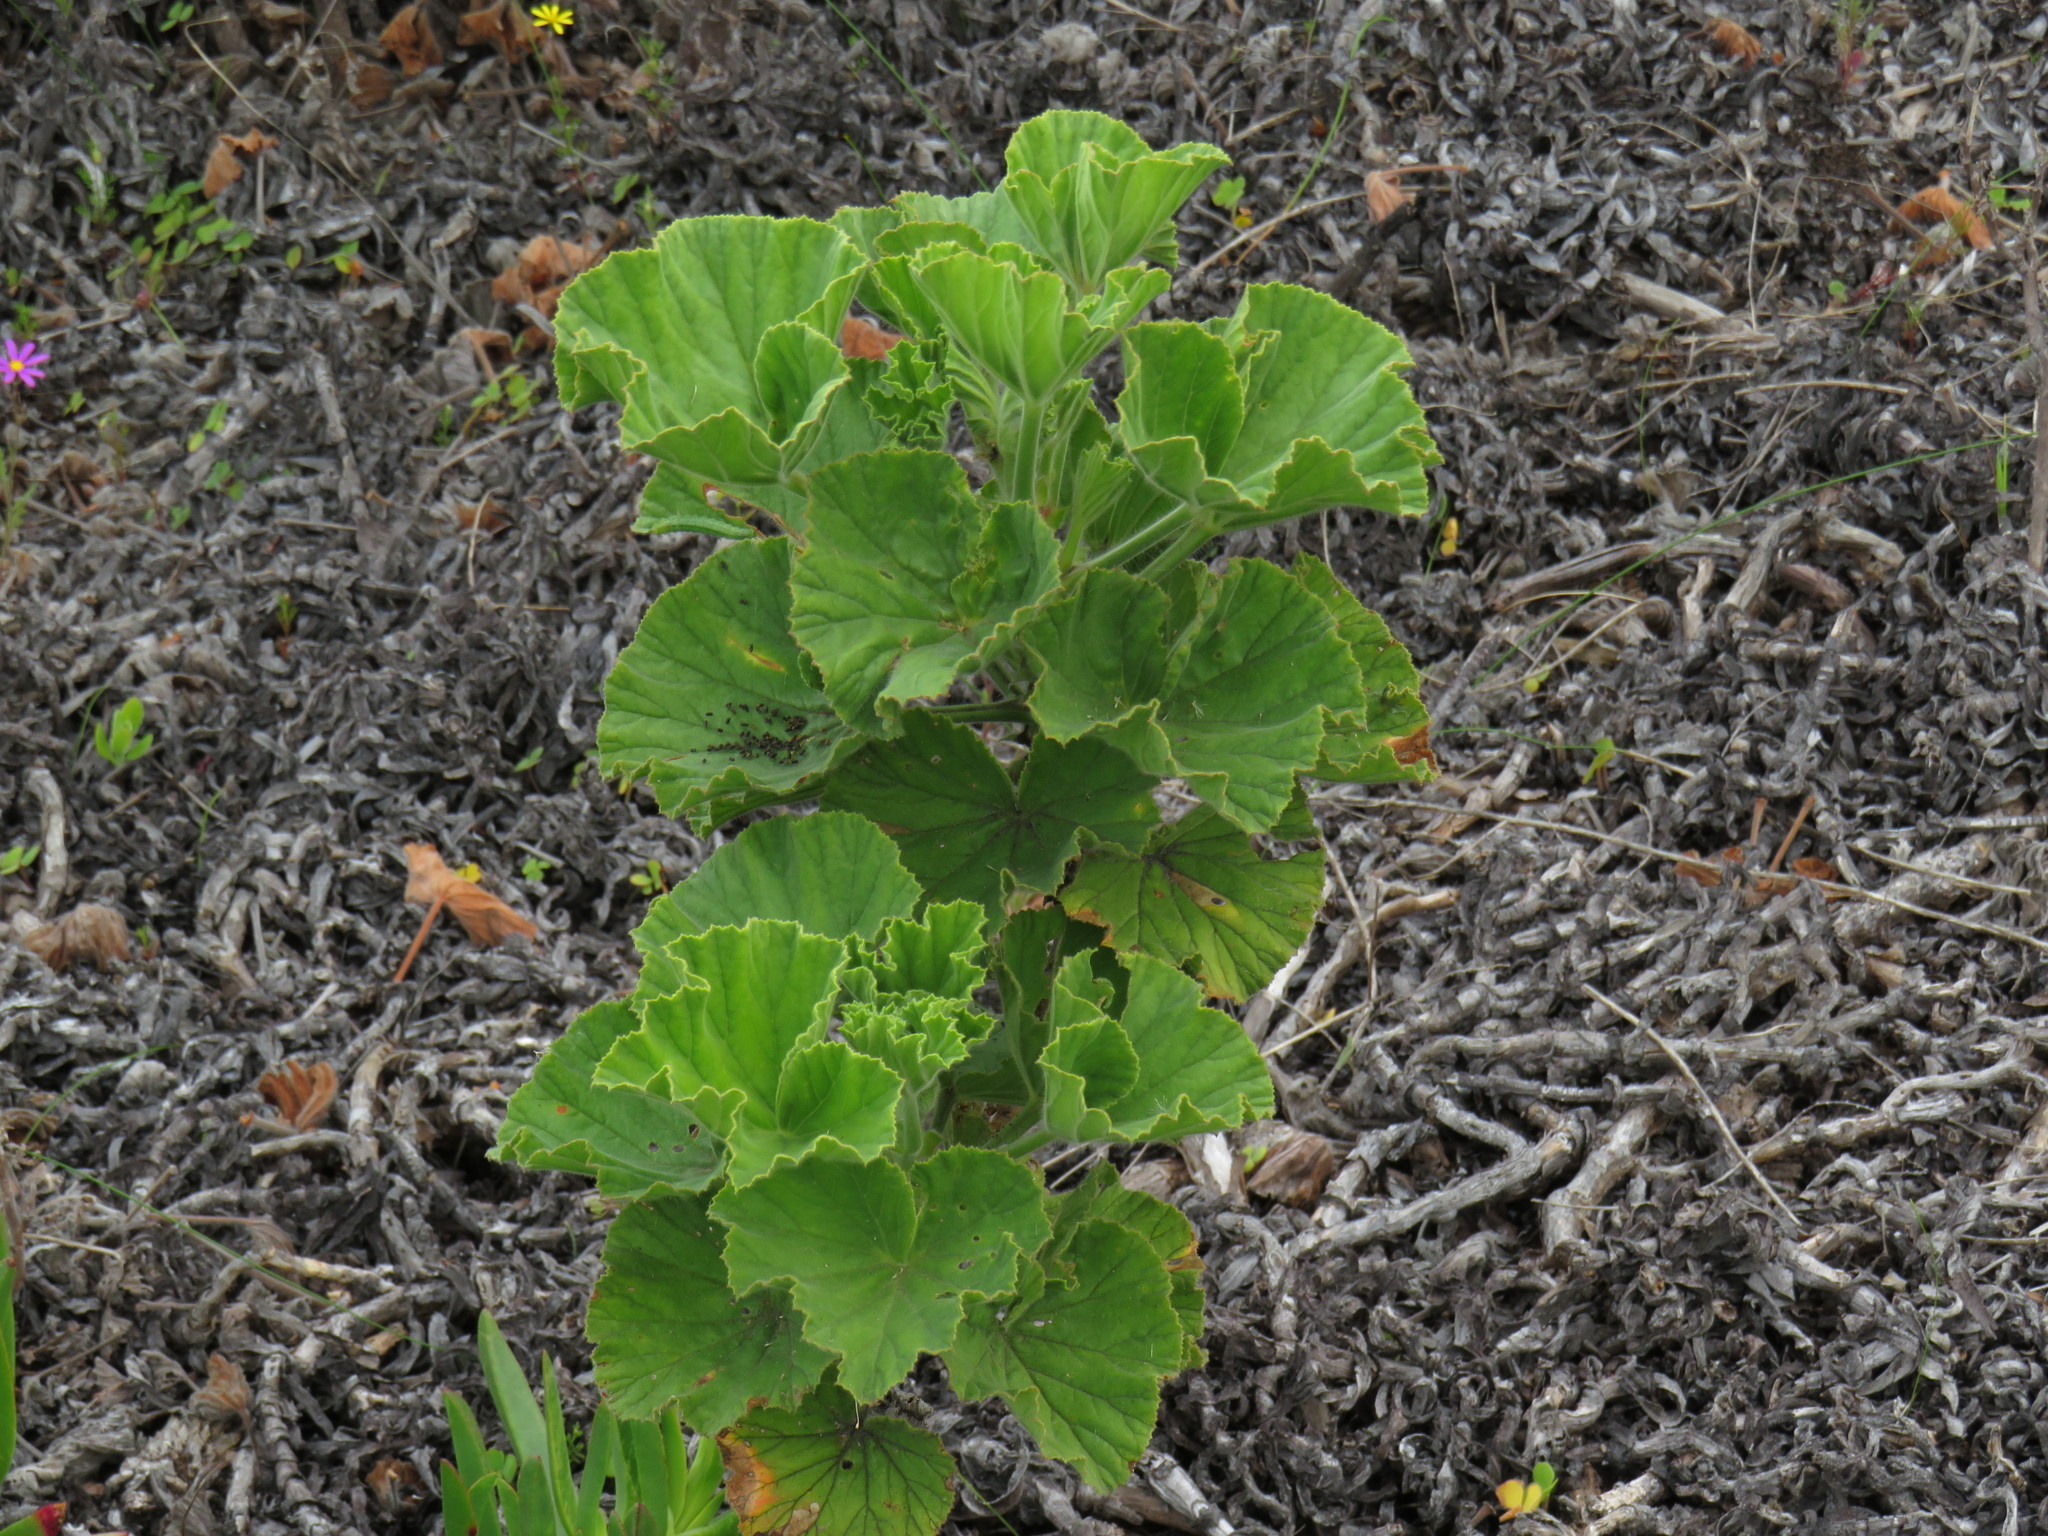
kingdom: Plantae
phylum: Tracheophyta
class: Magnoliopsida
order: Geraniales
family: Geraniaceae
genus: Pelargonium
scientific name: Pelargonium cucullatum
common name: Tree pelargonium
